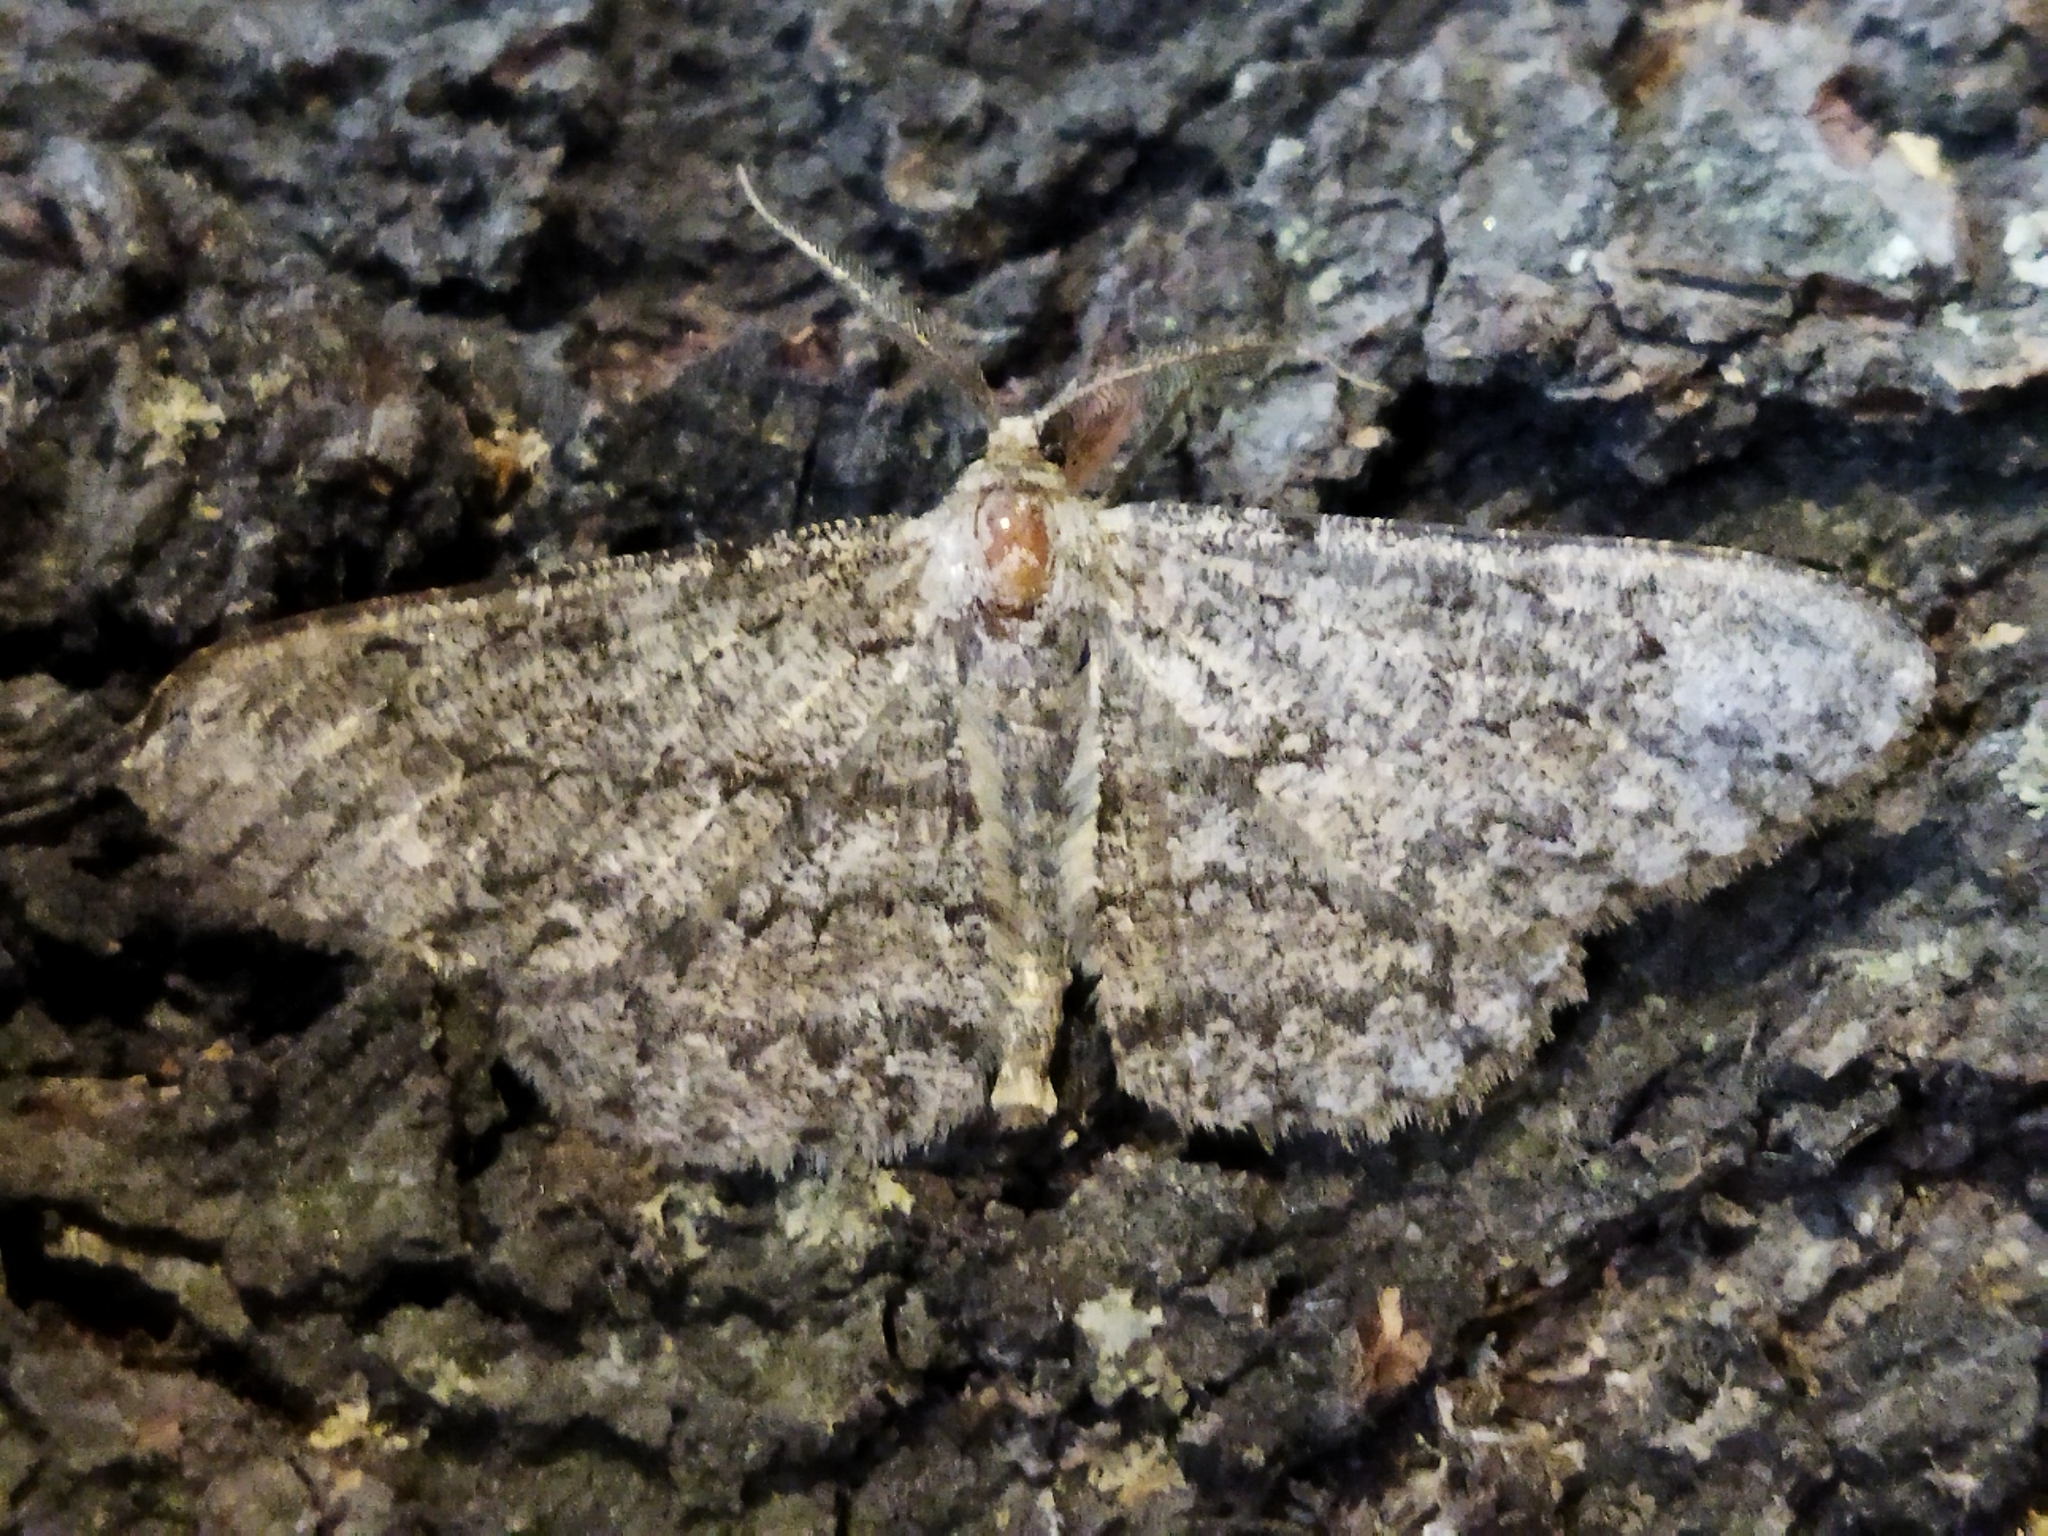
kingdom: Animalia
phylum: Arthropoda
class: Insecta
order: Lepidoptera
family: Geometridae
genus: Hypomecis
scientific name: Hypomecis punctinalis
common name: Pale oak beauty
